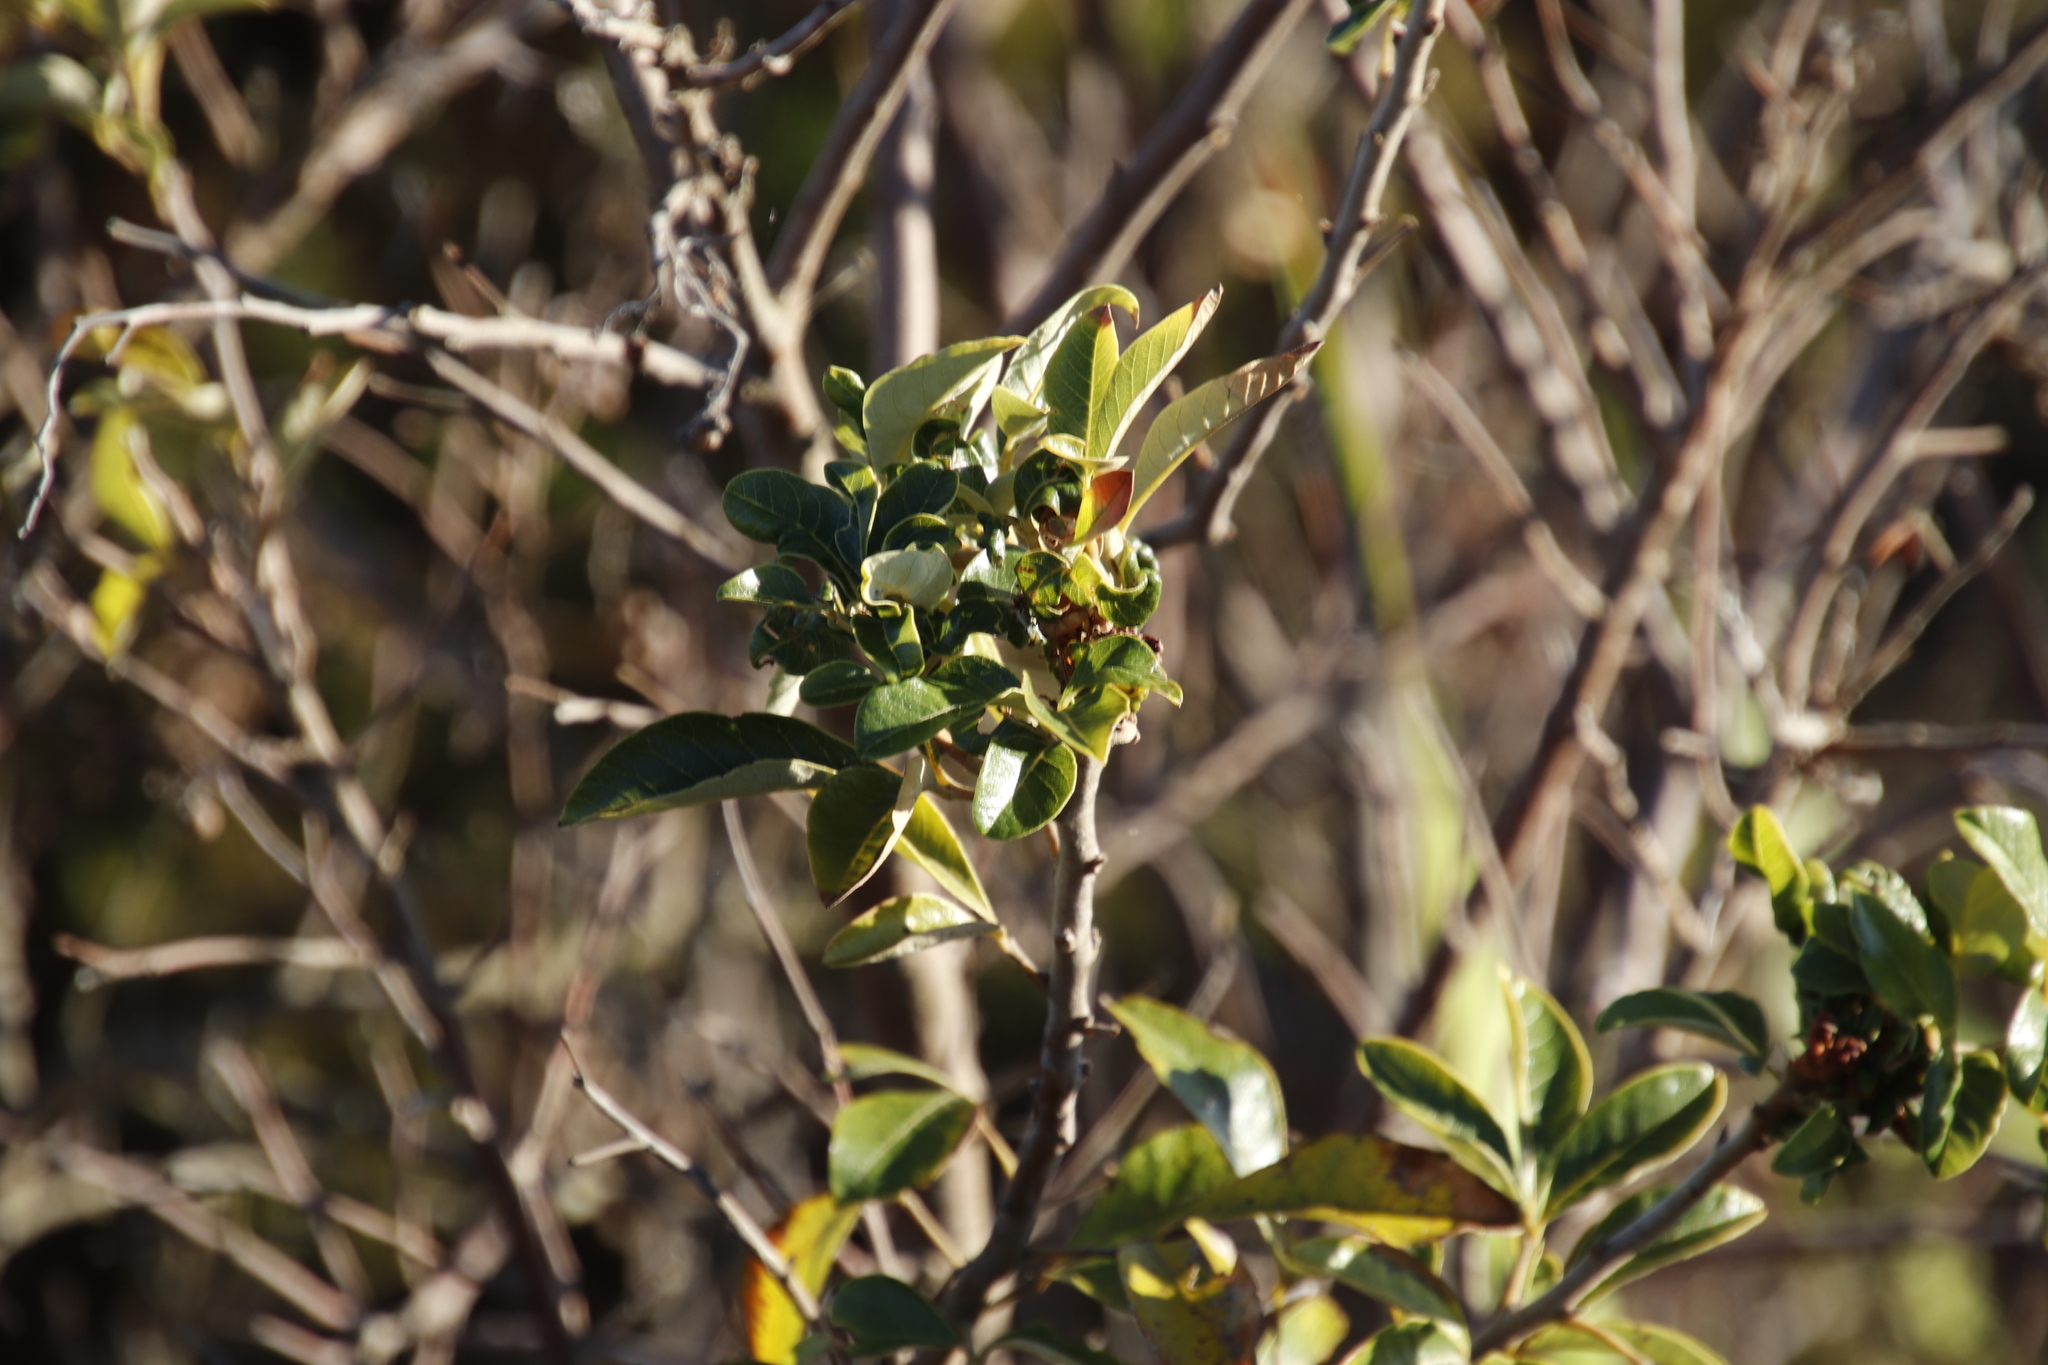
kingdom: Plantae
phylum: Tracheophyta
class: Magnoliopsida
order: Sapindales
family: Anacardiaceae
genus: Searsia
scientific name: Searsia tomentosa
